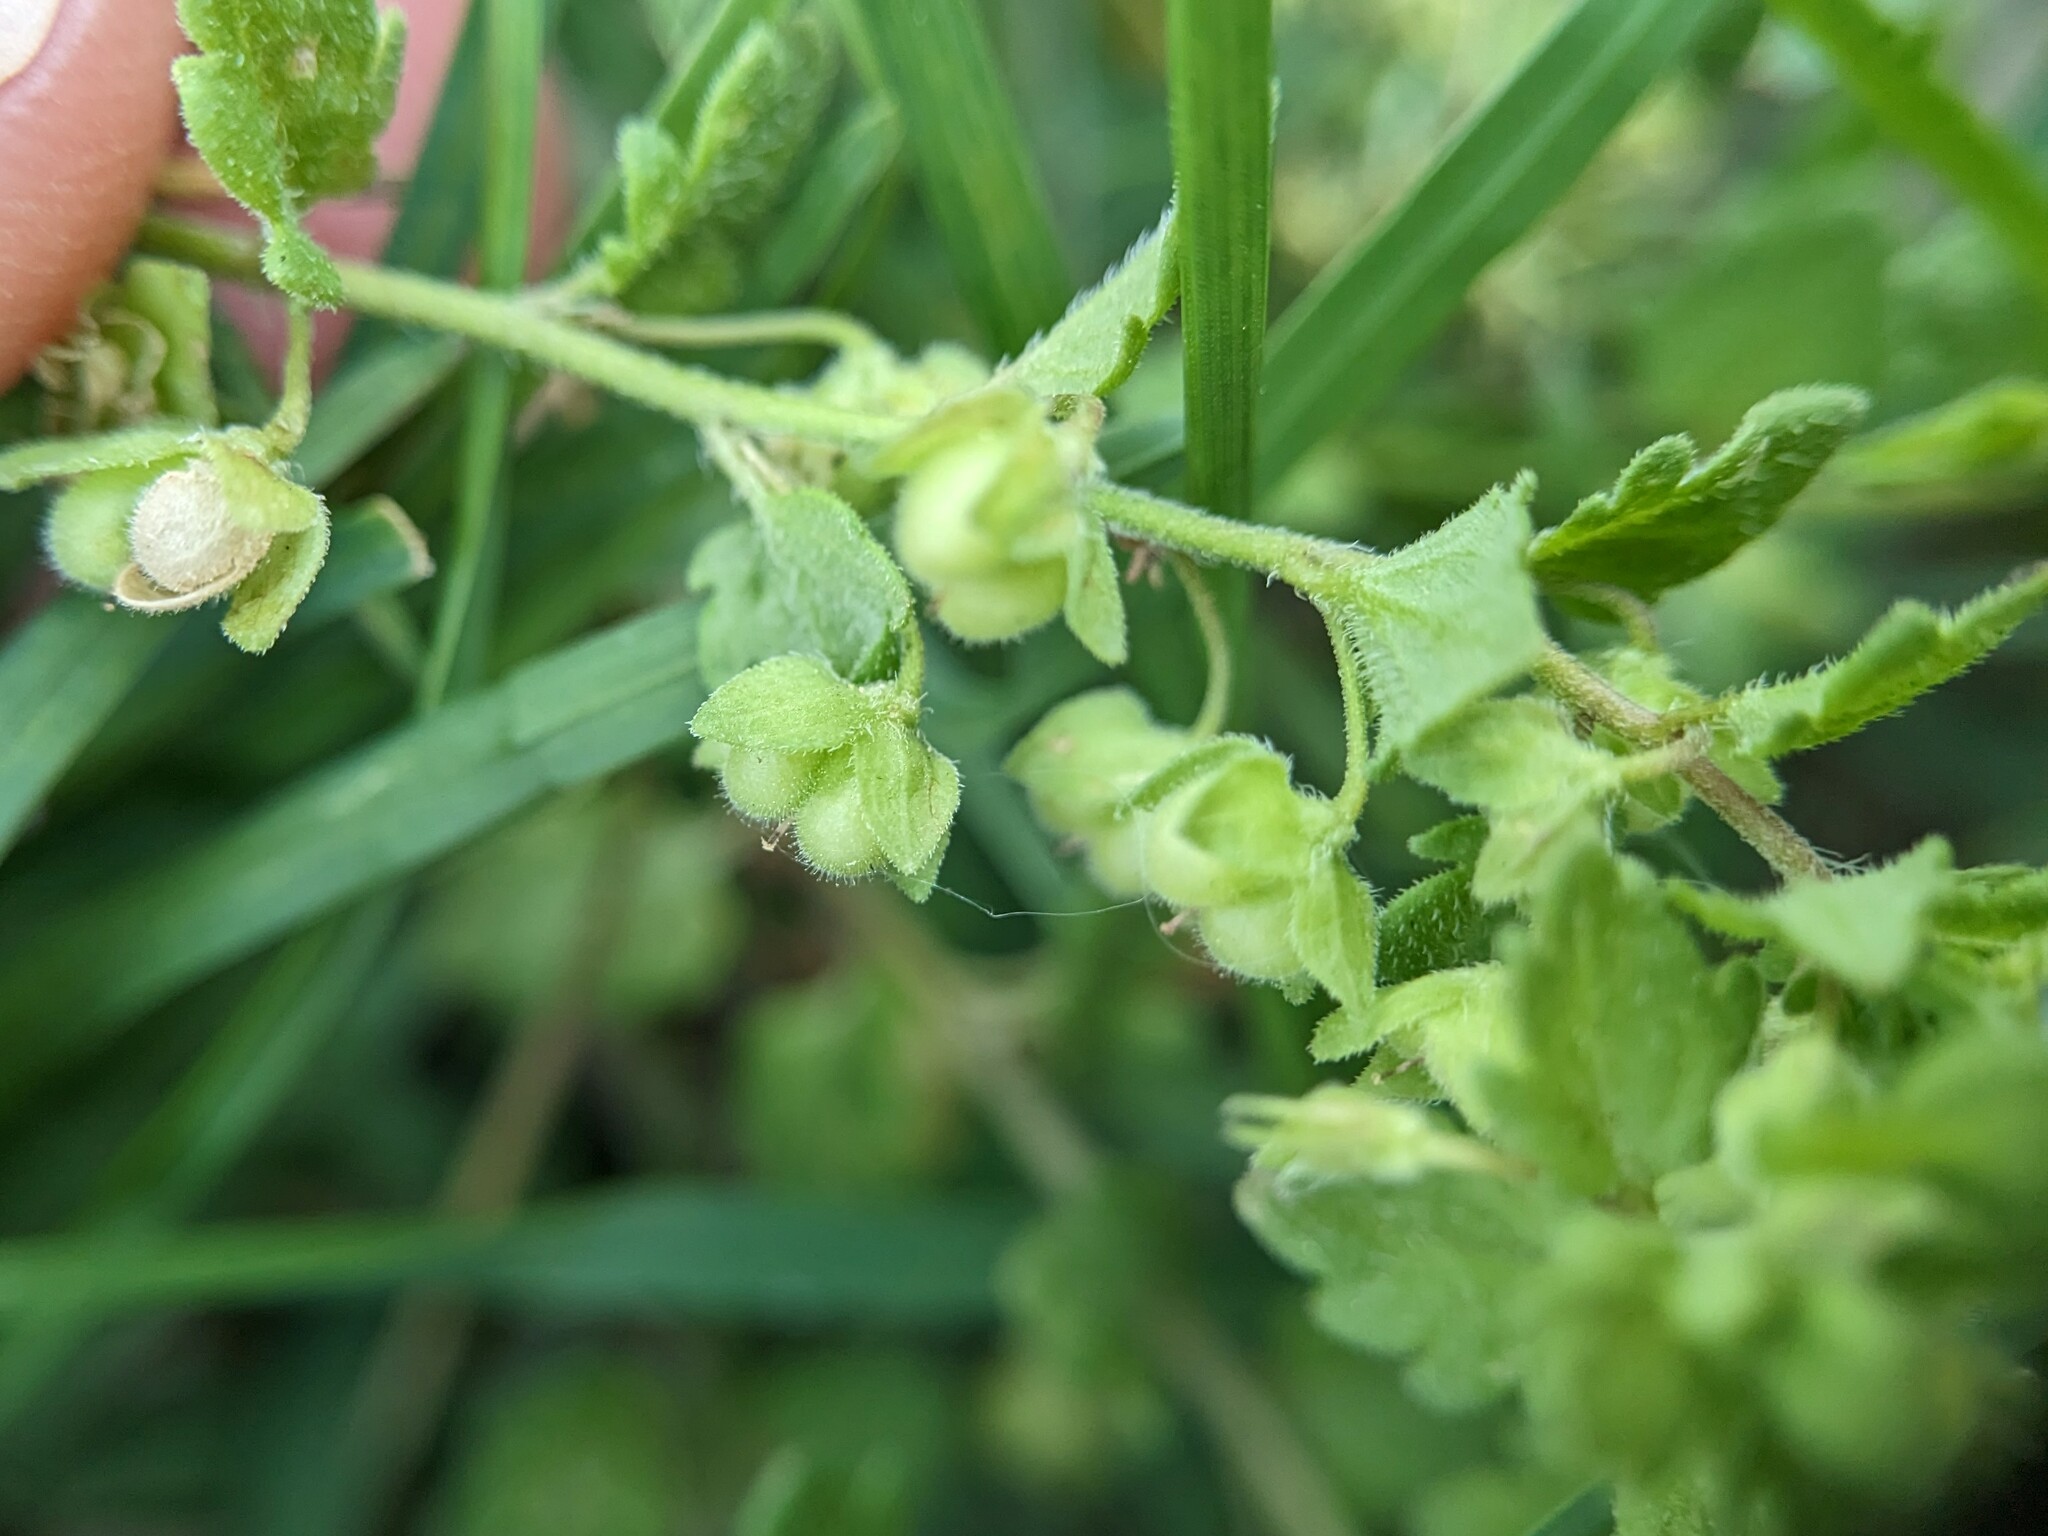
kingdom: Plantae
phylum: Tracheophyta
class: Magnoliopsida
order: Lamiales
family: Plantaginaceae
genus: Veronica
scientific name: Veronica polita
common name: Grey field-speedwell
